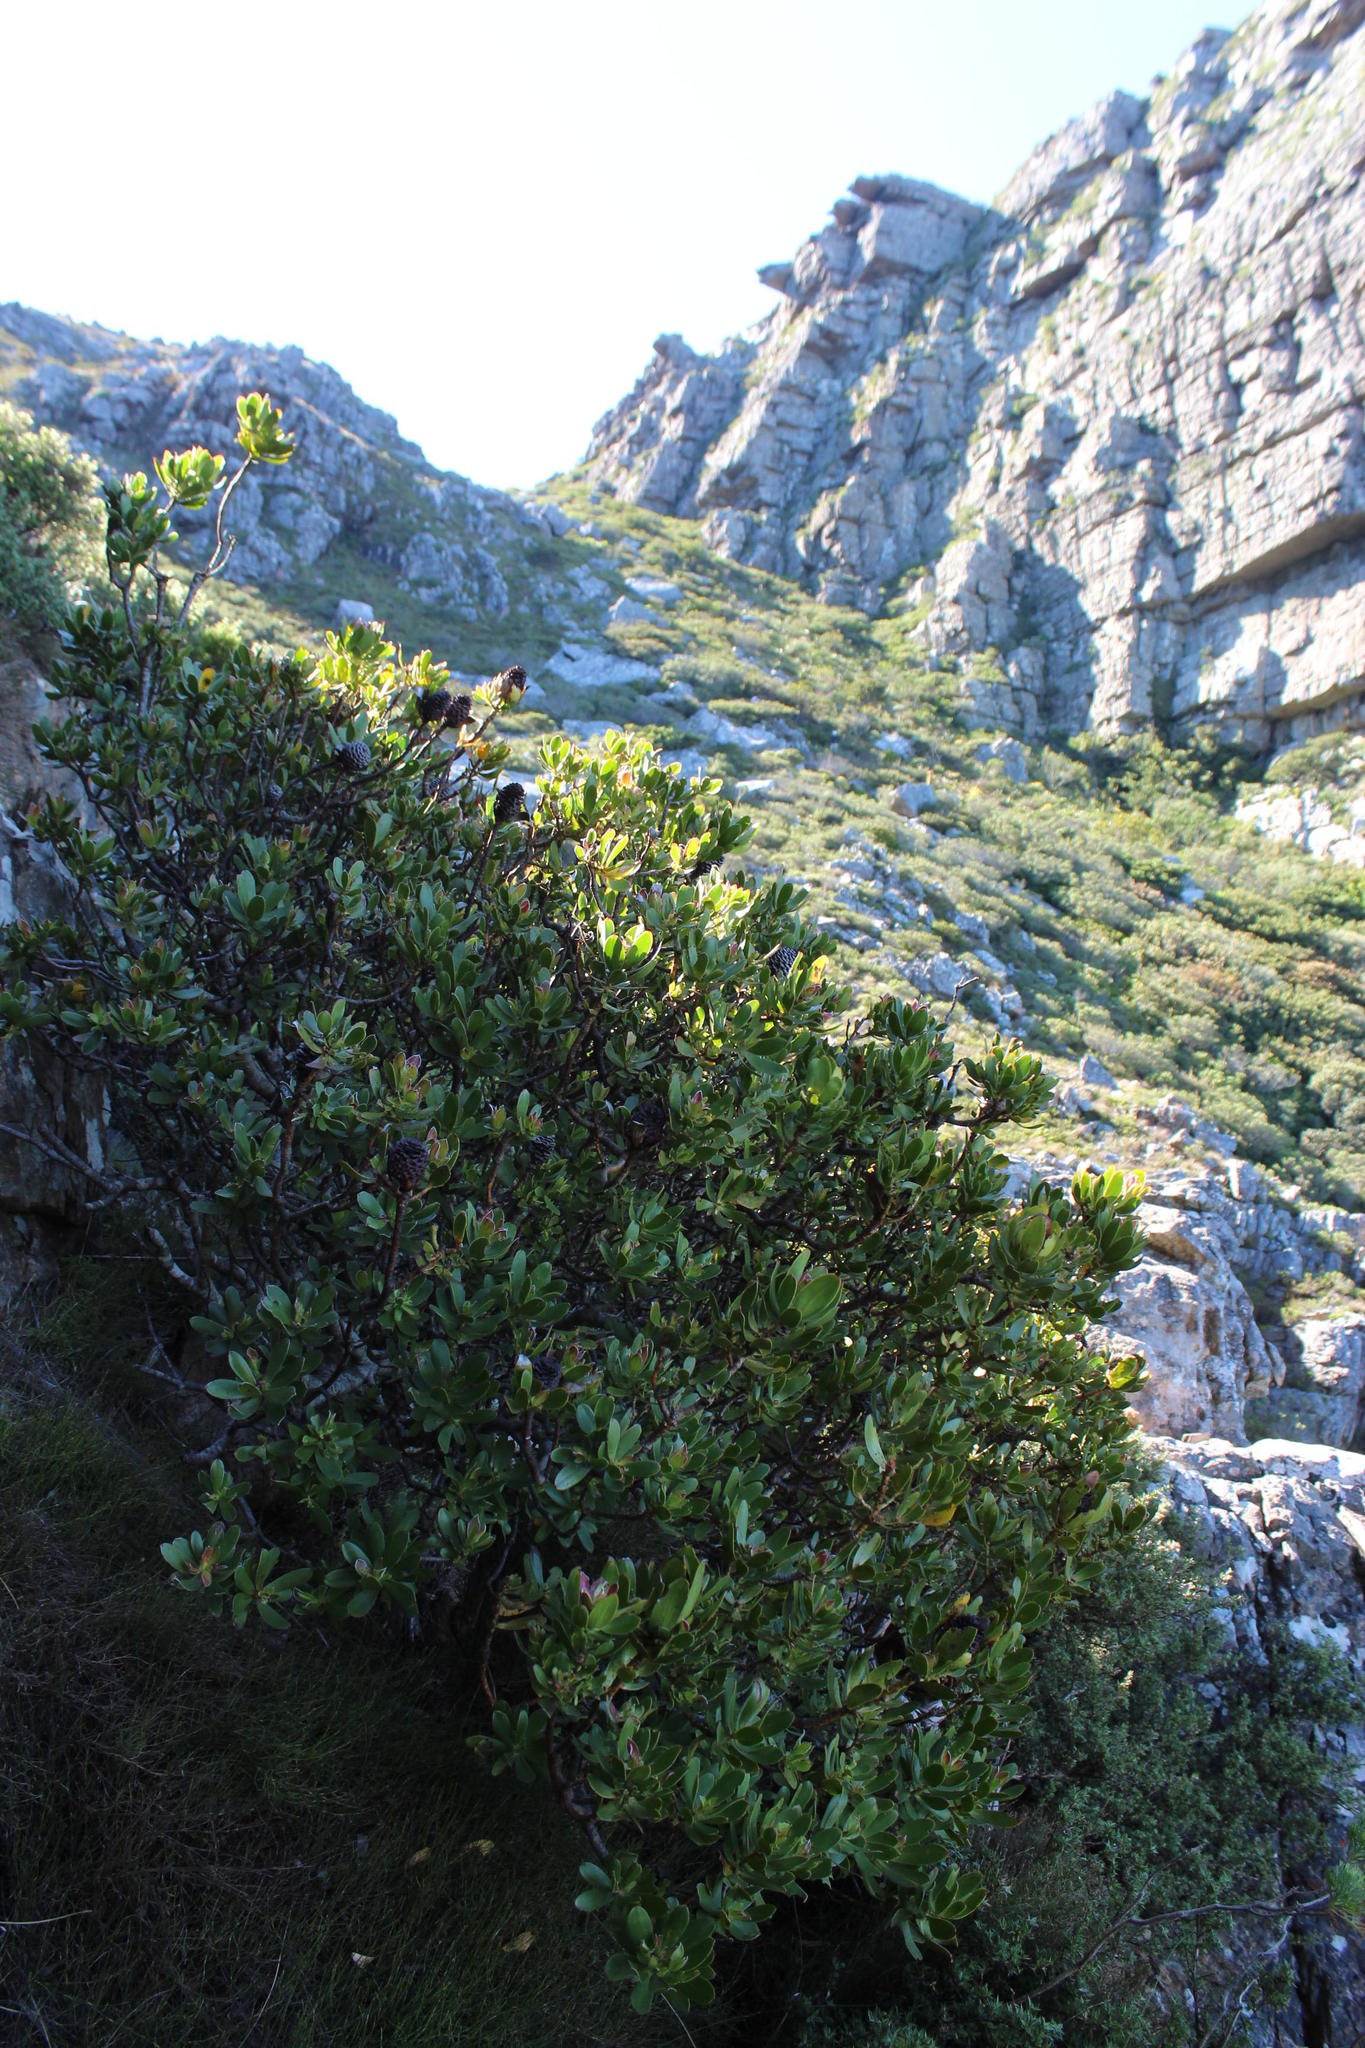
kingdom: Plantae
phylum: Tracheophyta
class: Magnoliopsida
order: Proteales
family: Proteaceae
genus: Leucadendron
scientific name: Leucadendron strobilinum
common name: Mountain rose
